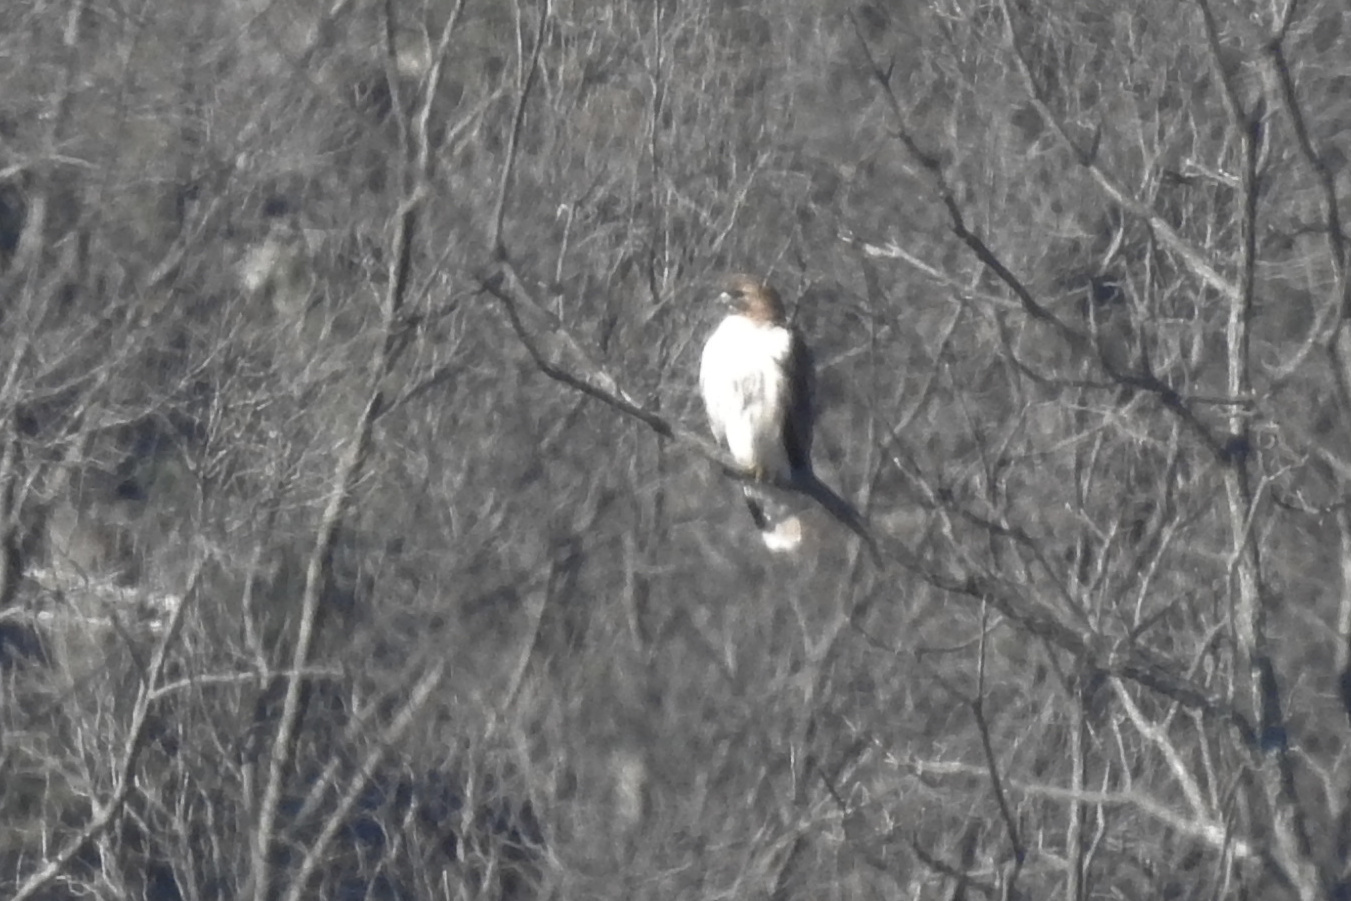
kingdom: Animalia
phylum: Chordata
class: Aves
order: Accipitriformes
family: Accipitridae
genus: Buteo
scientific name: Buteo jamaicensis
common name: Red-tailed hawk
